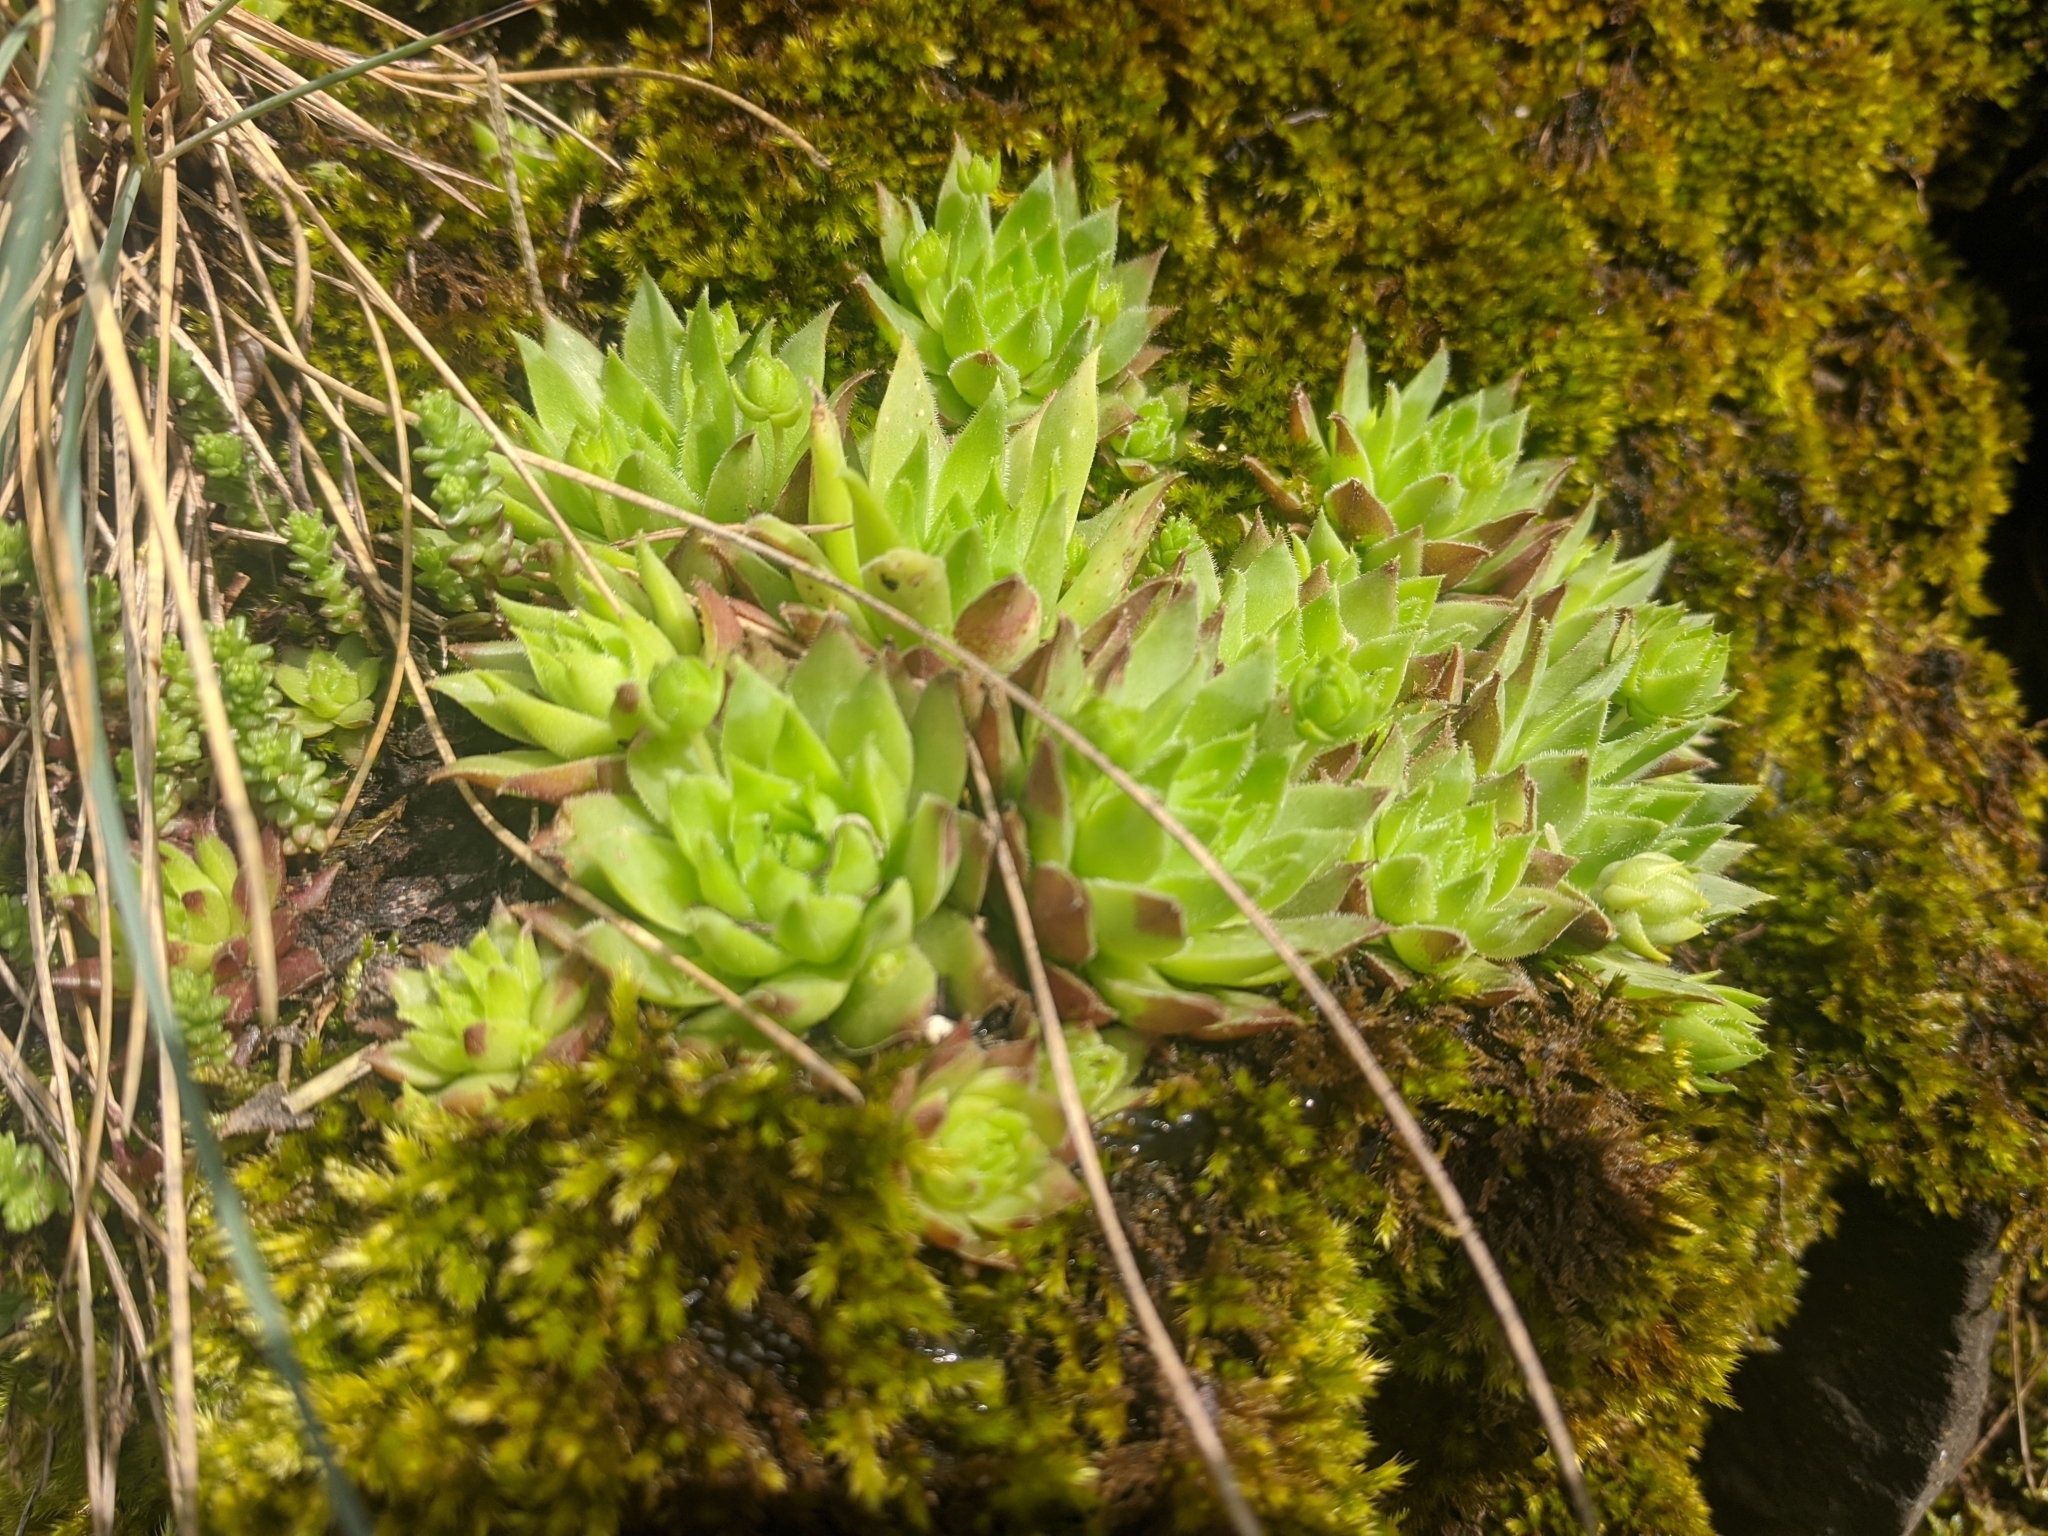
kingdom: Plantae
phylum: Tracheophyta
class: Magnoliopsida
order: Saxifragales
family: Crassulaceae
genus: Sempervivum
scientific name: Sempervivum globiferum
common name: Rolling hen-and-chicks
